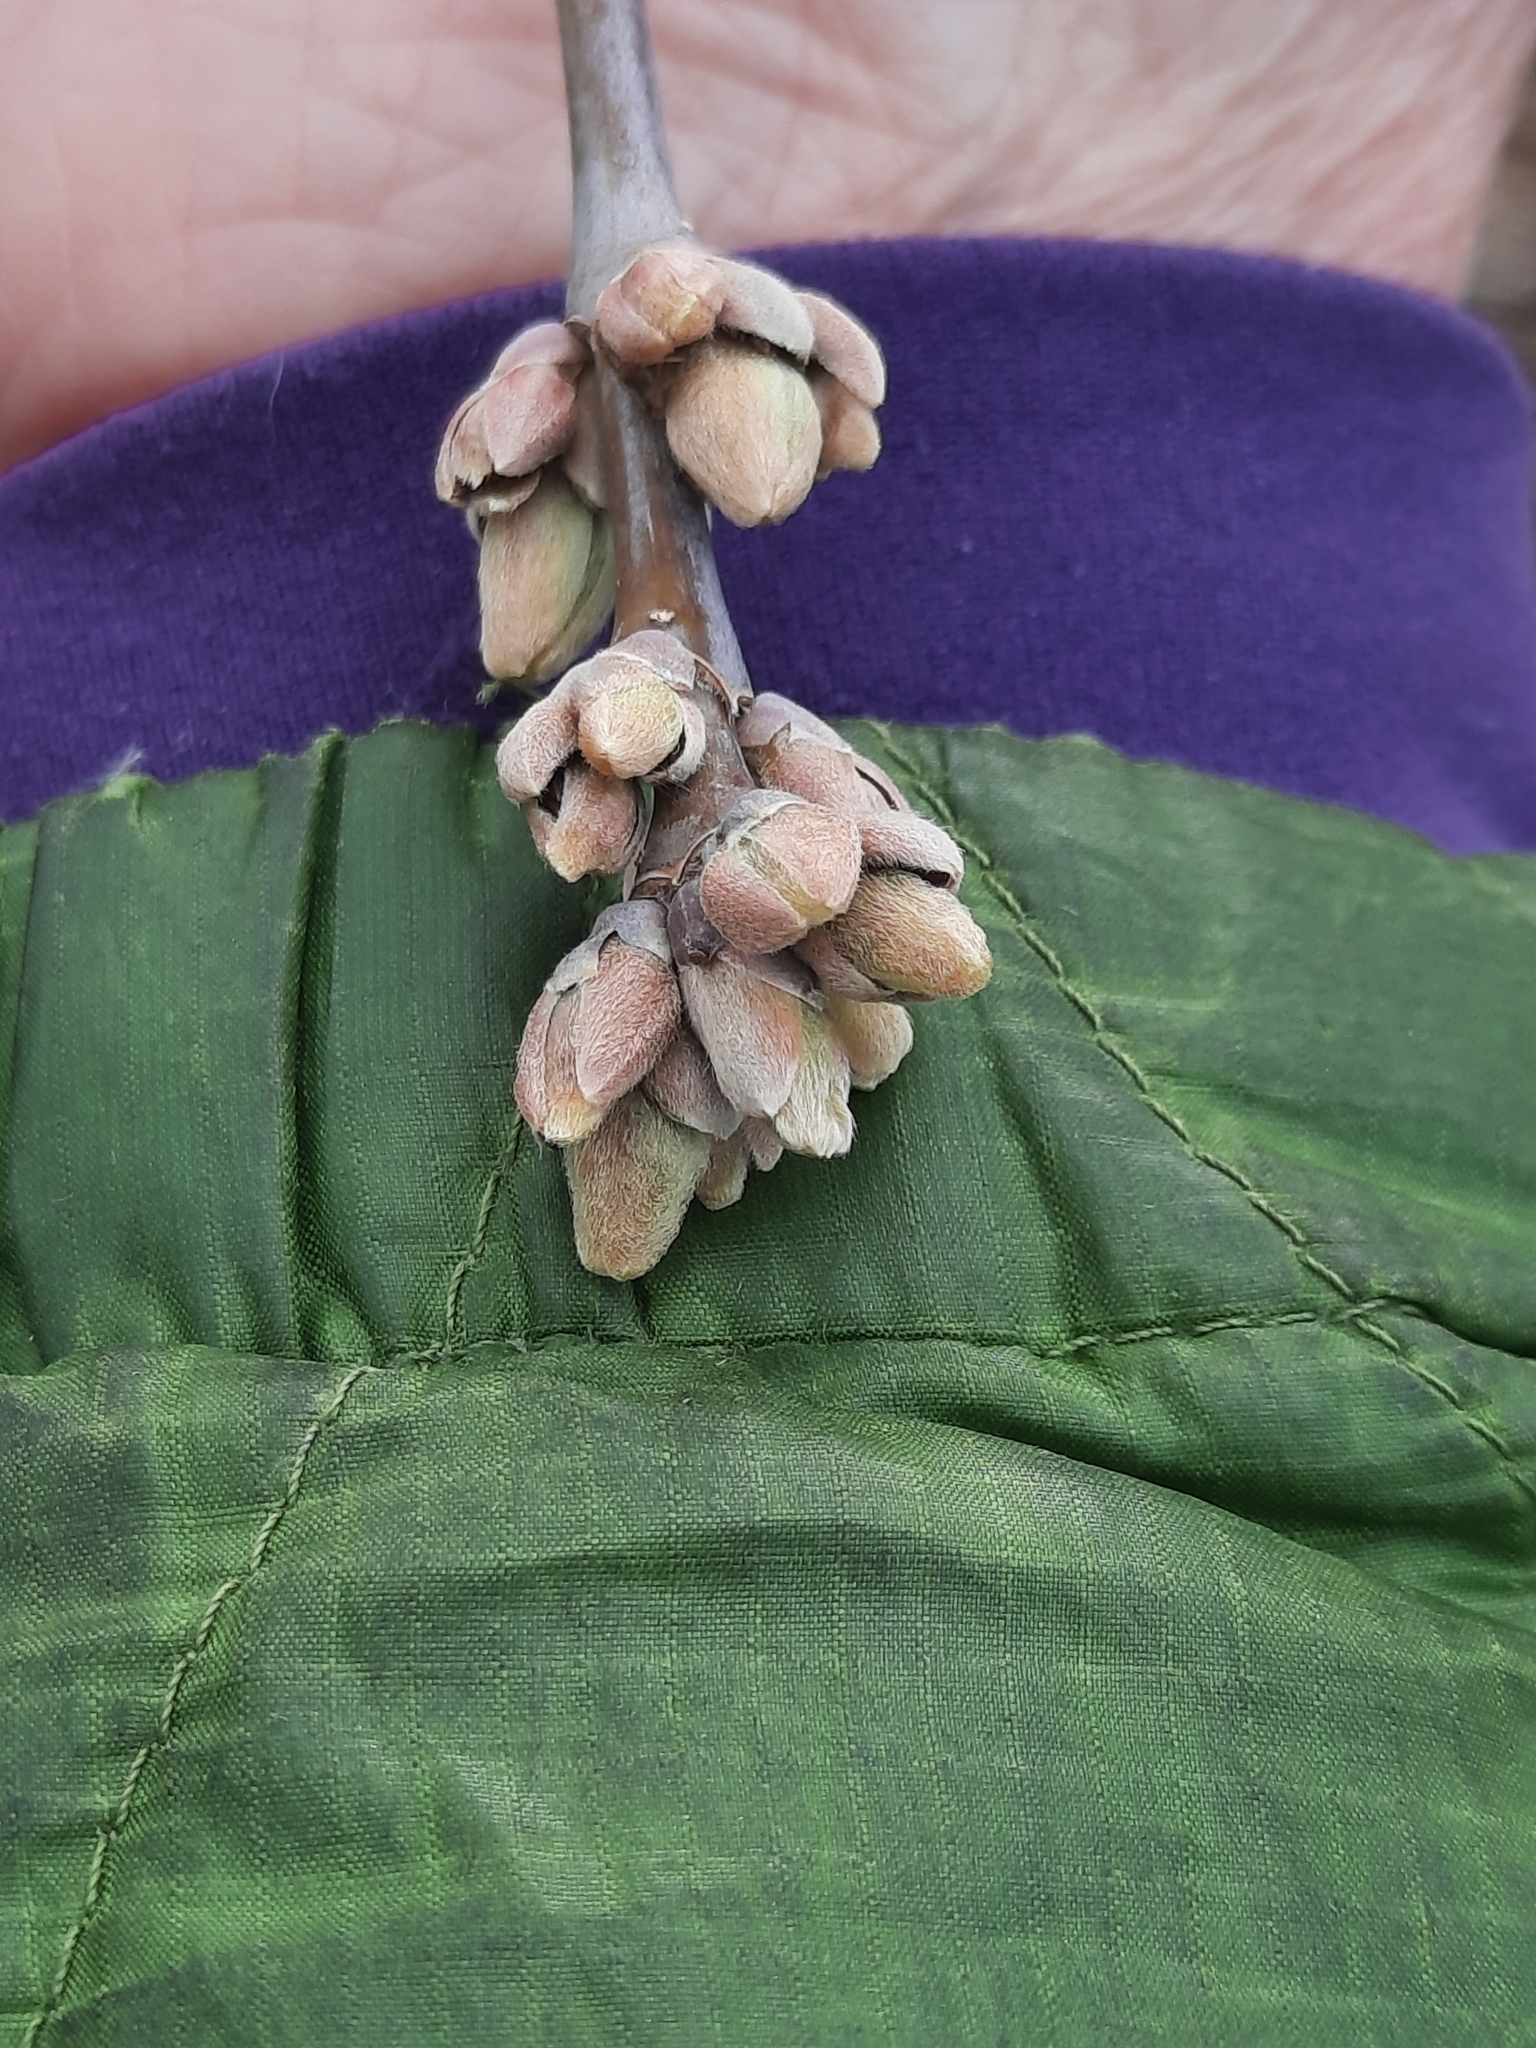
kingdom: Plantae
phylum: Tracheophyta
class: Magnoliopsida
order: Sapindales
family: Sapindaceae
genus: Acer
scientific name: Acer negundo
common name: Ashleaf maple
